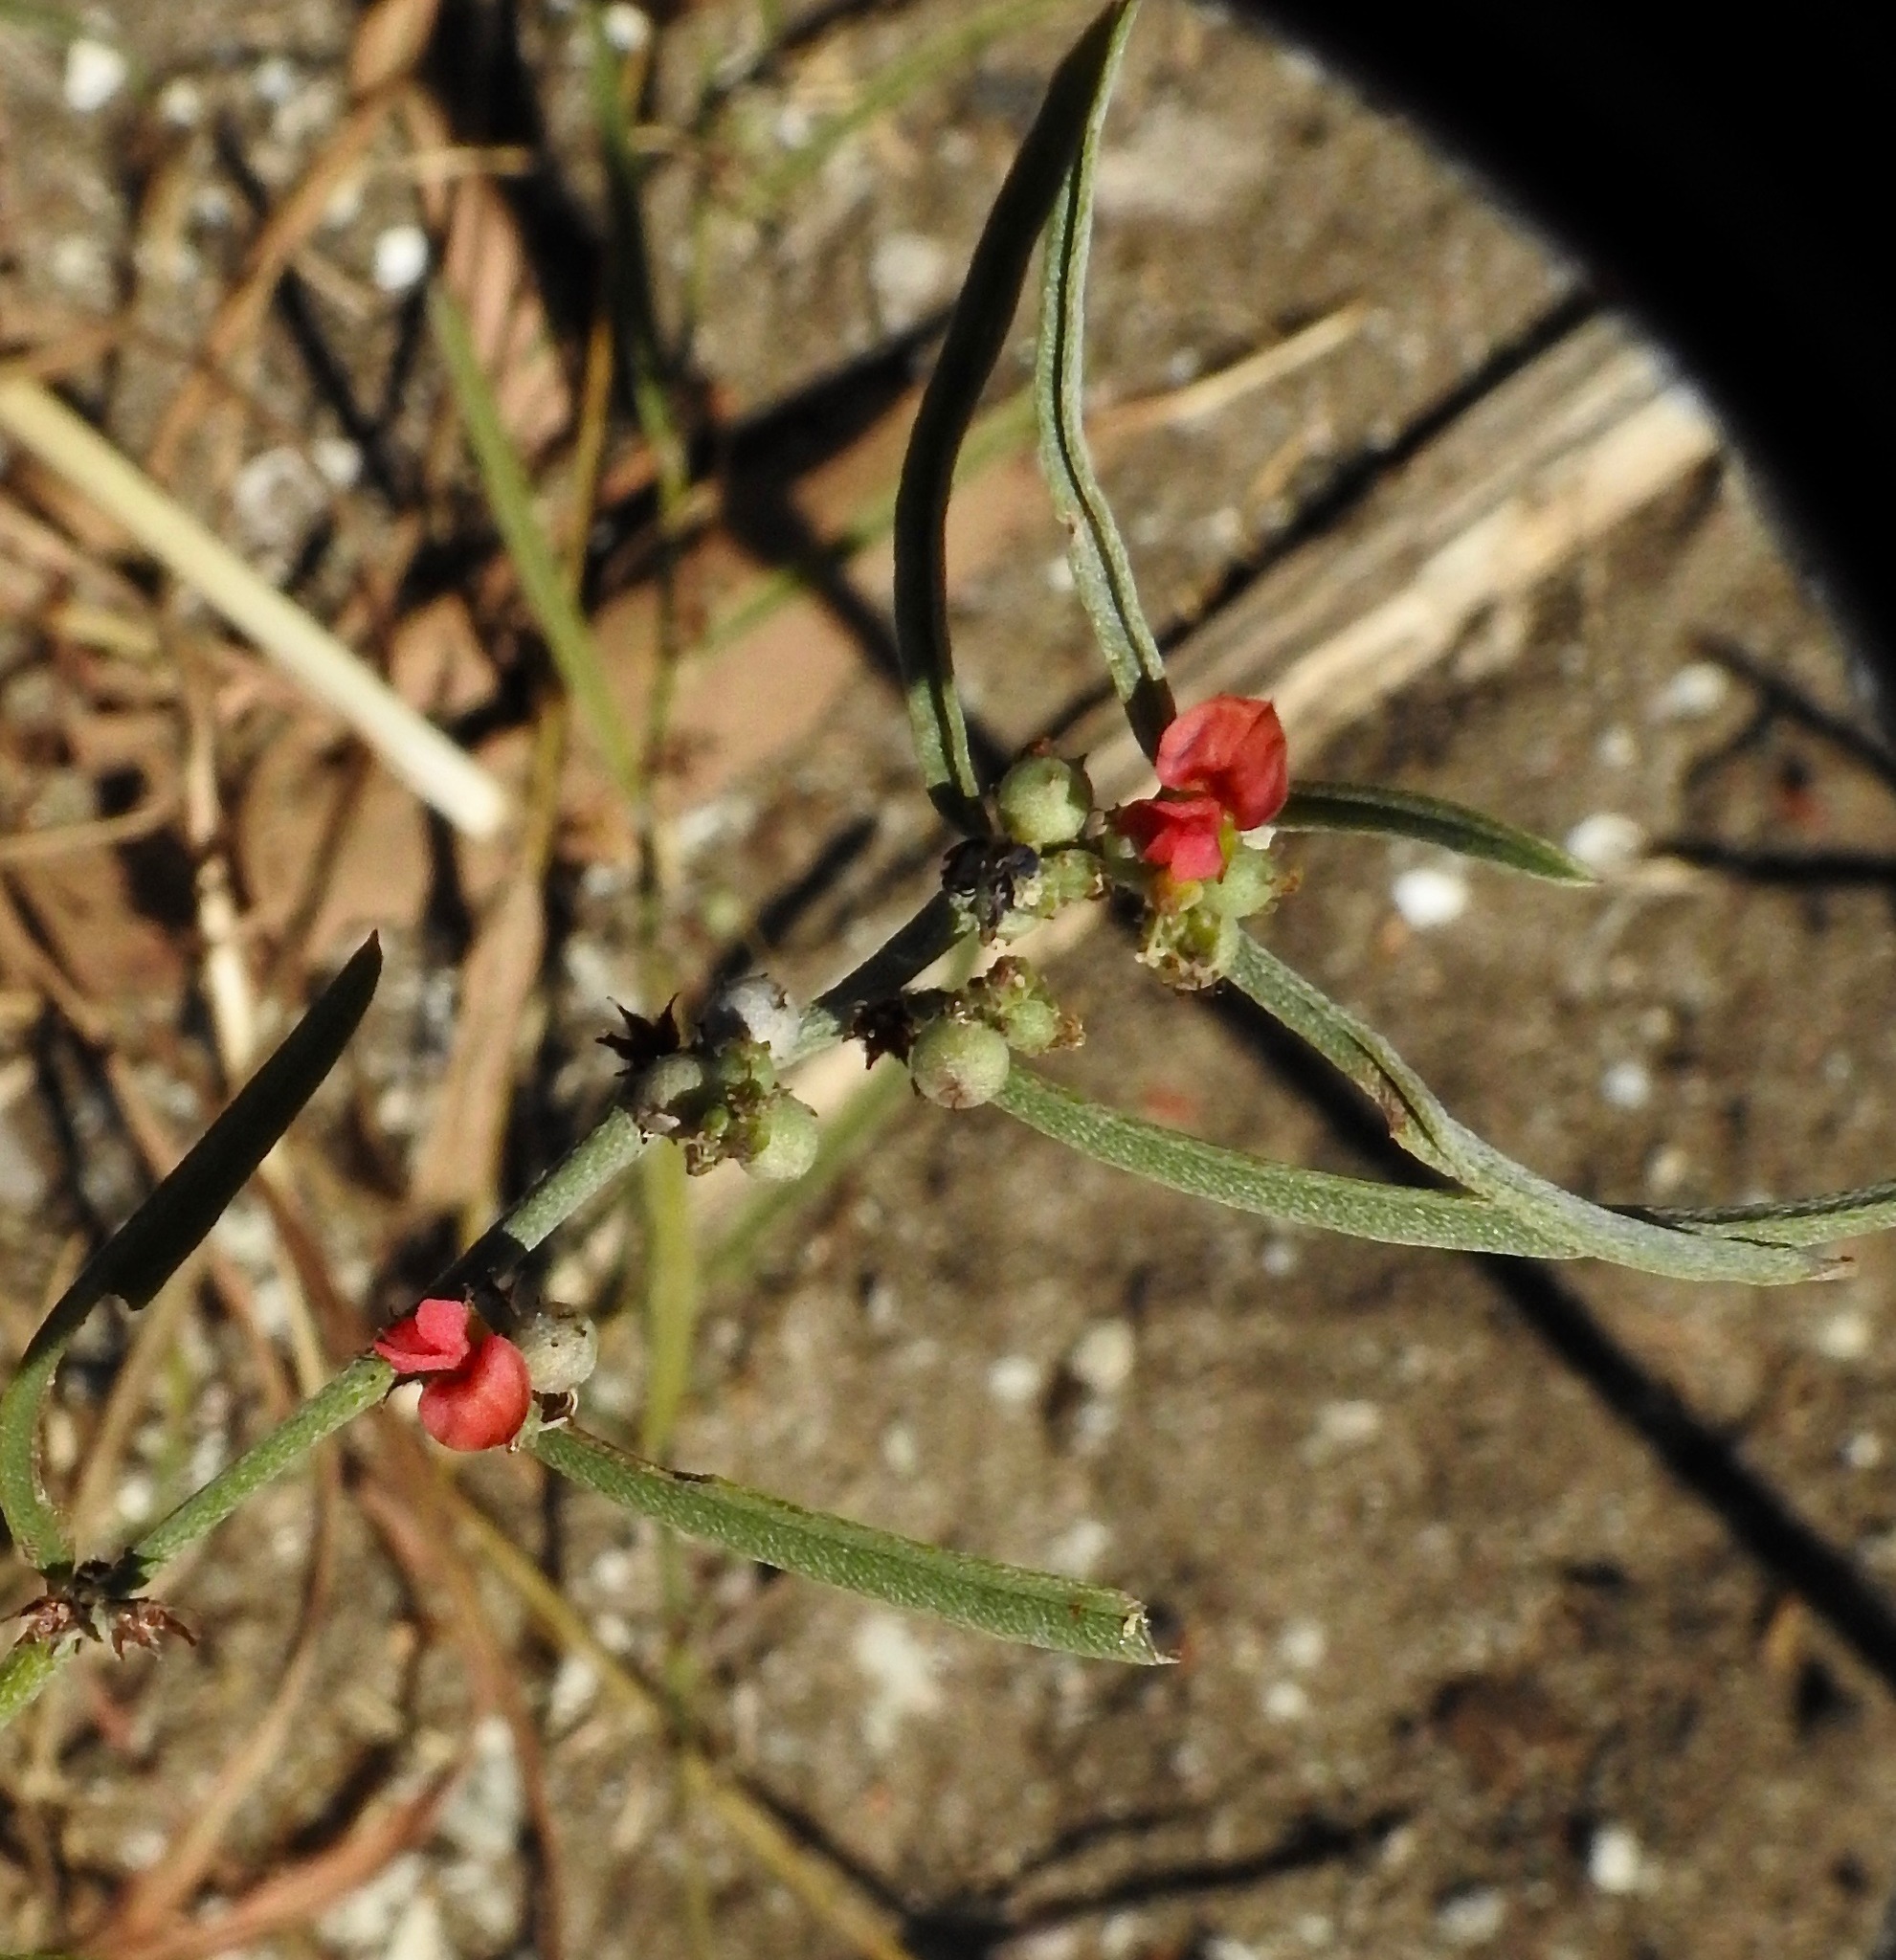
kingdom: Plantae
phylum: Tracheophyta
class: Magnoliopsida
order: Fabales
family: Fabaceae
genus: Indigofera
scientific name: Indigofera linifolia
